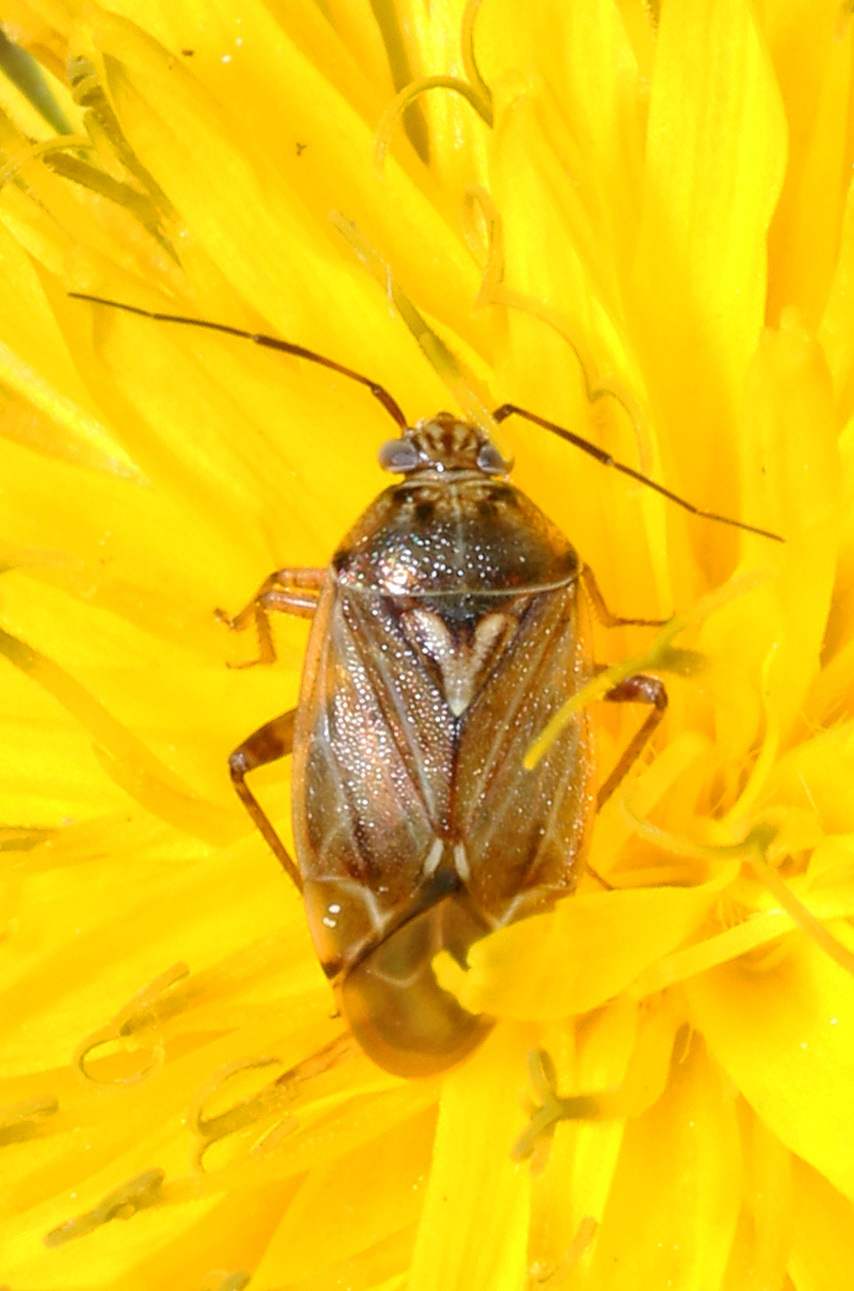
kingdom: Animalia
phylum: Arthropoda
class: Insecta
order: Hemiptera
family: Miridae
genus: Lygus
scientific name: Lygus lineolaris
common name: North american tarnished plant bug
